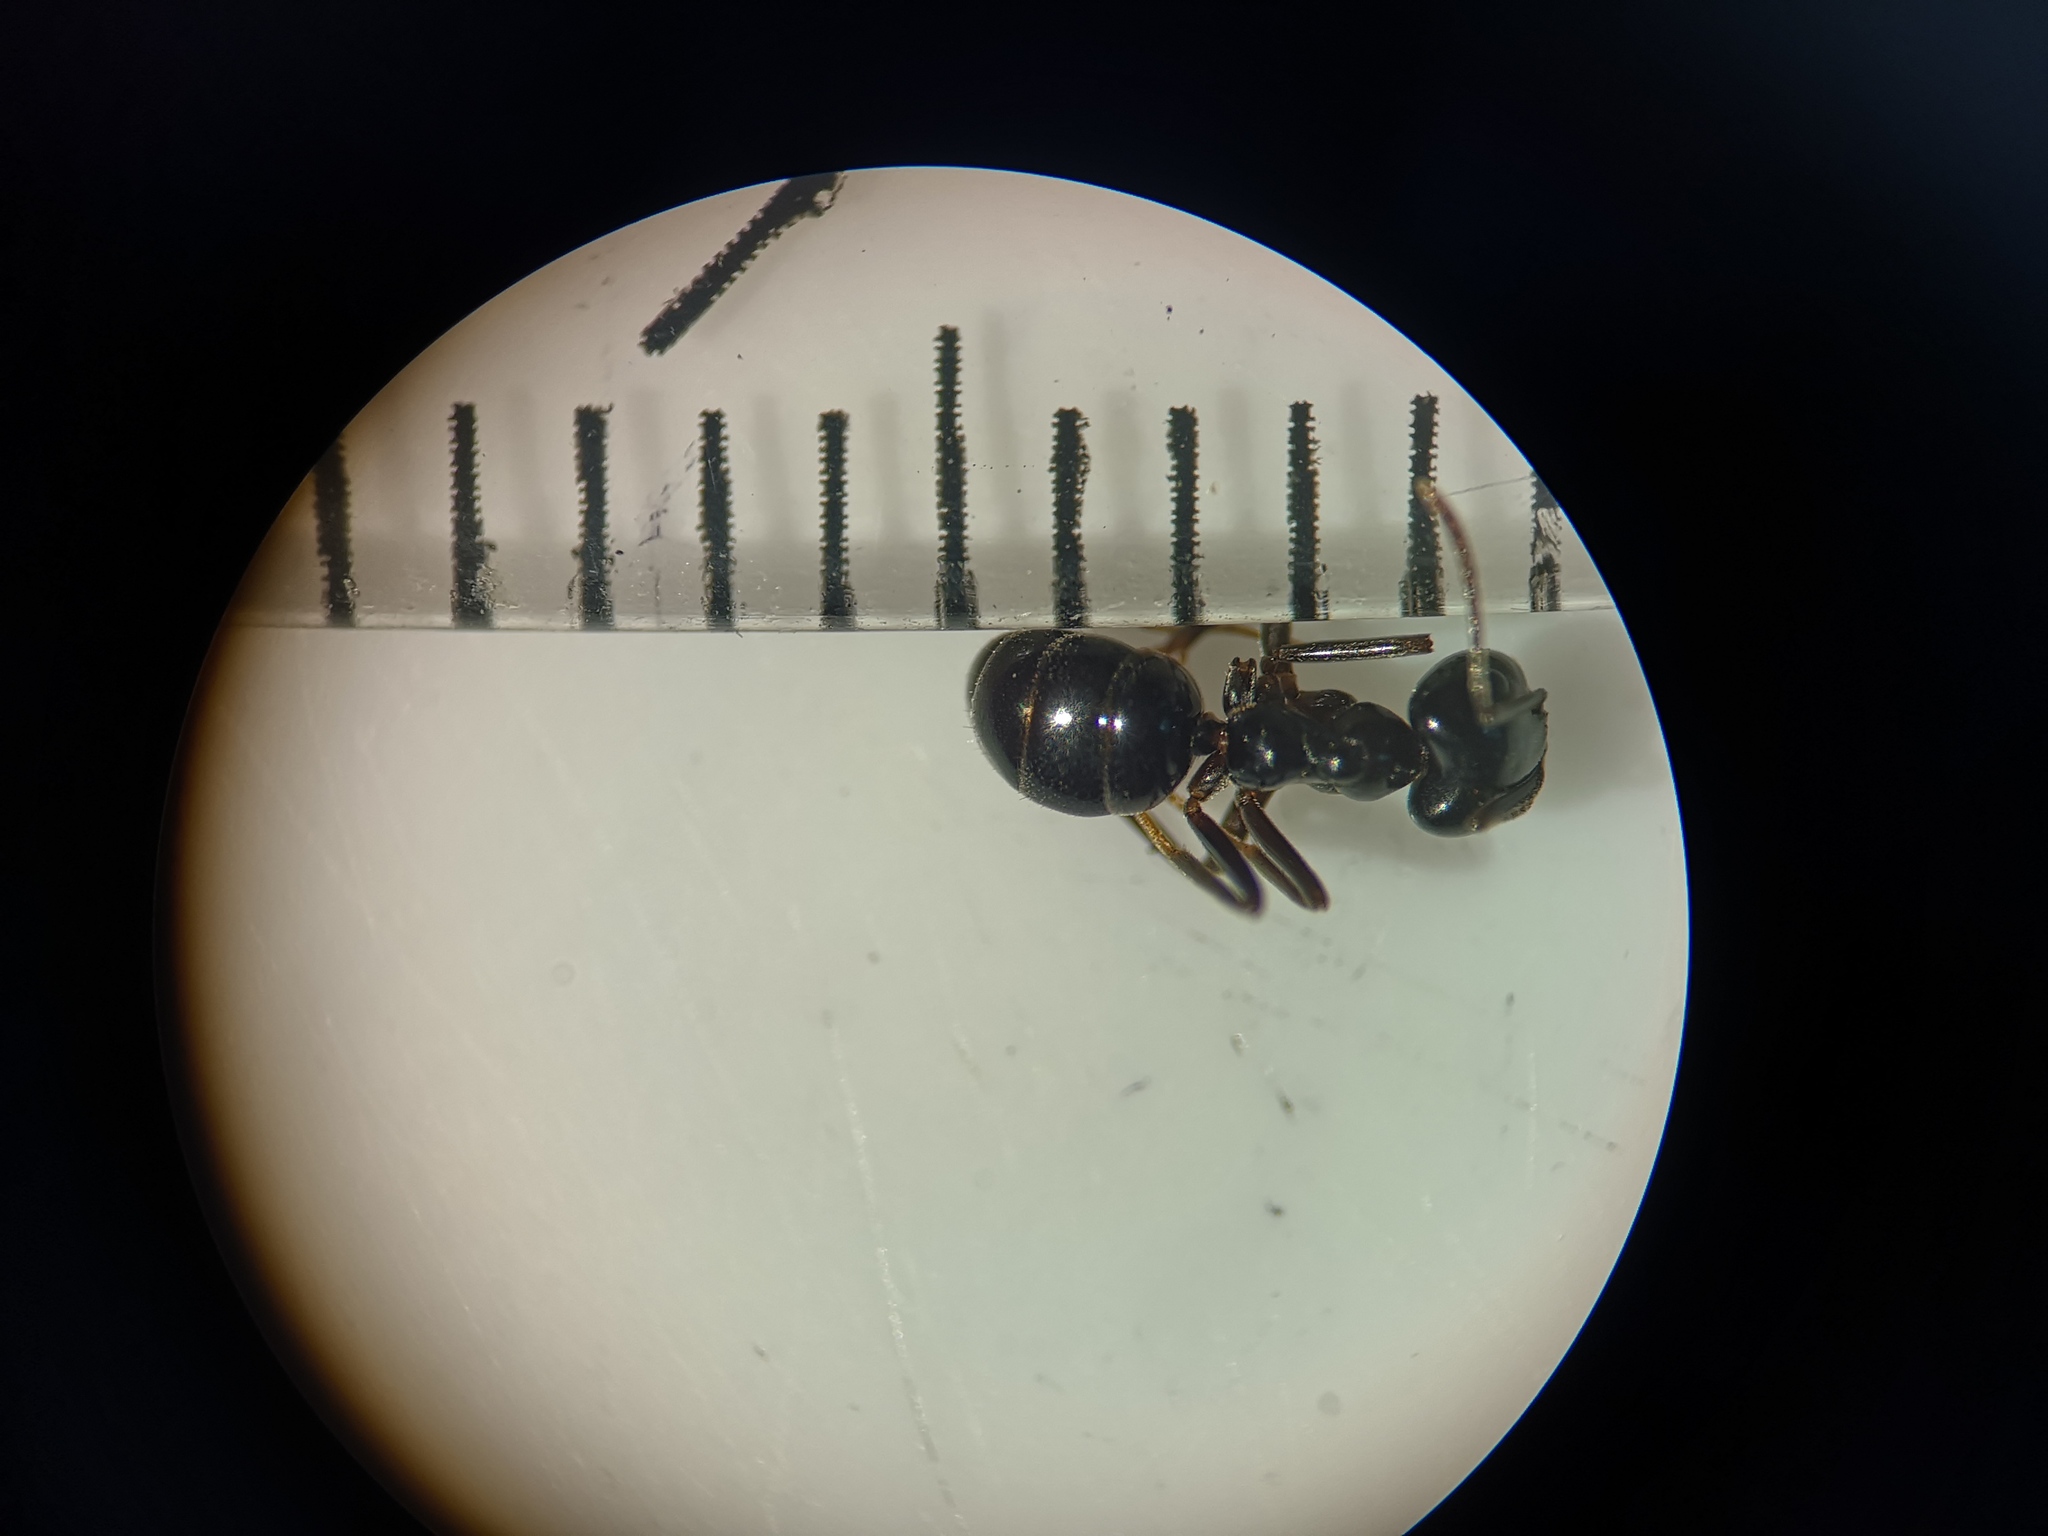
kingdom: Animalia
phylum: Arthropoda
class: Insecta
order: Hymenoptera
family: Formicidae
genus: Lasius
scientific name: Lasius fuliginosus
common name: Jet ant
